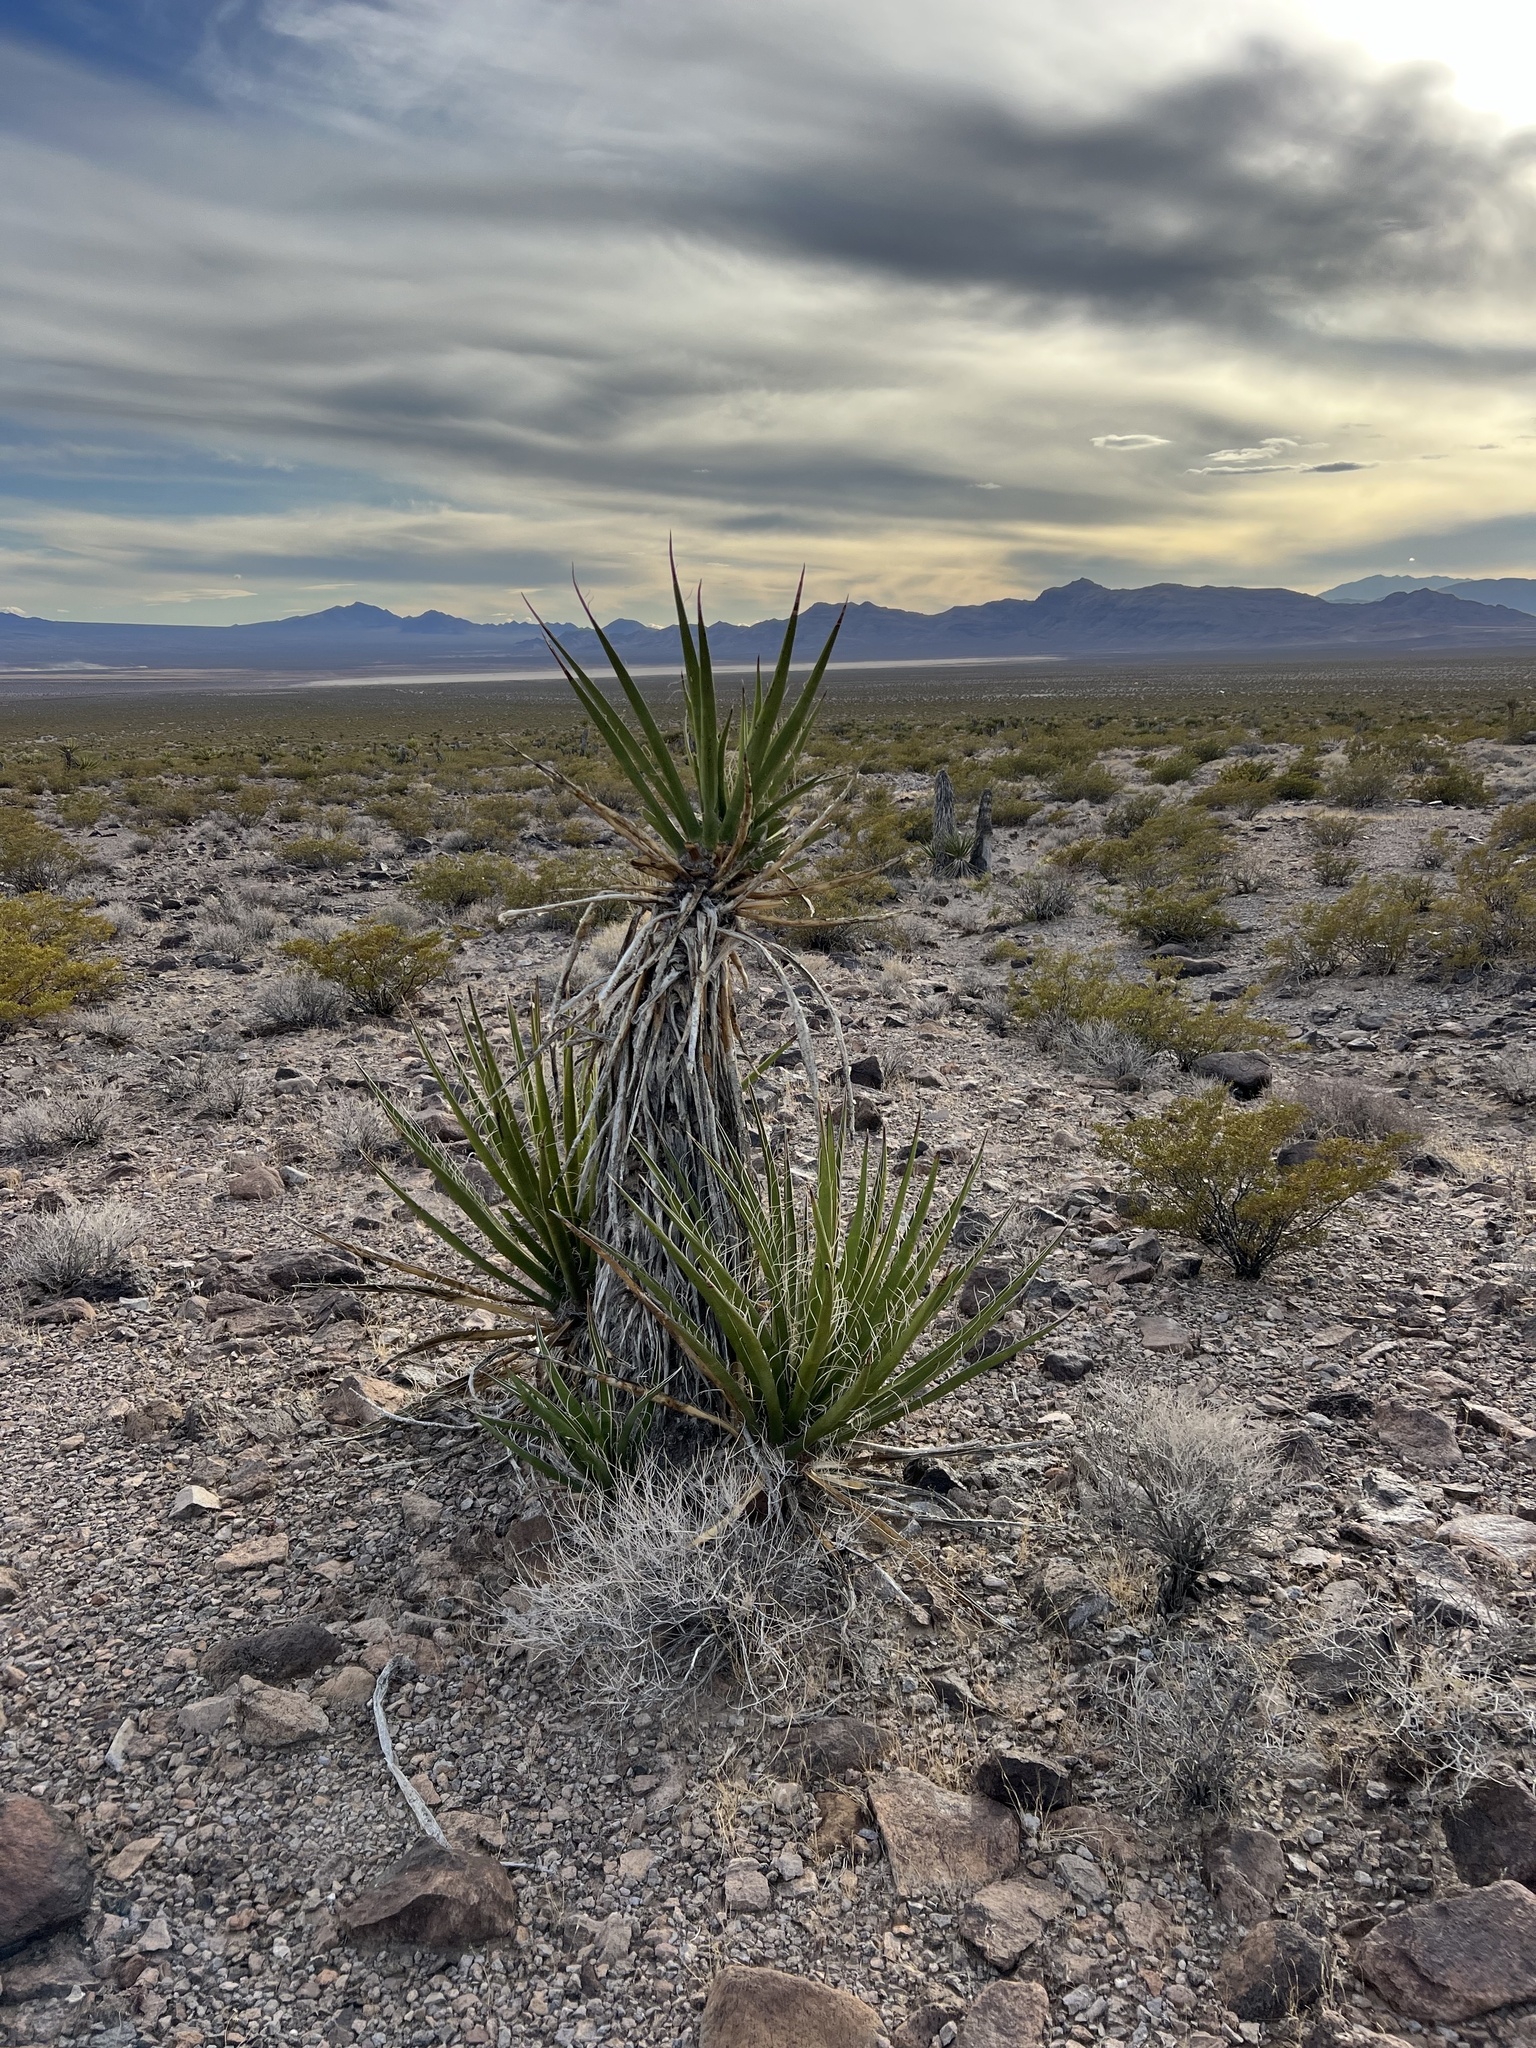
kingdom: Plantae
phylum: Tracheophyta
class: Liliopsida
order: Asparagales
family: Asparagaceae
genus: Yucca
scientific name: Yucca schidigera
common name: Mojave yucca
